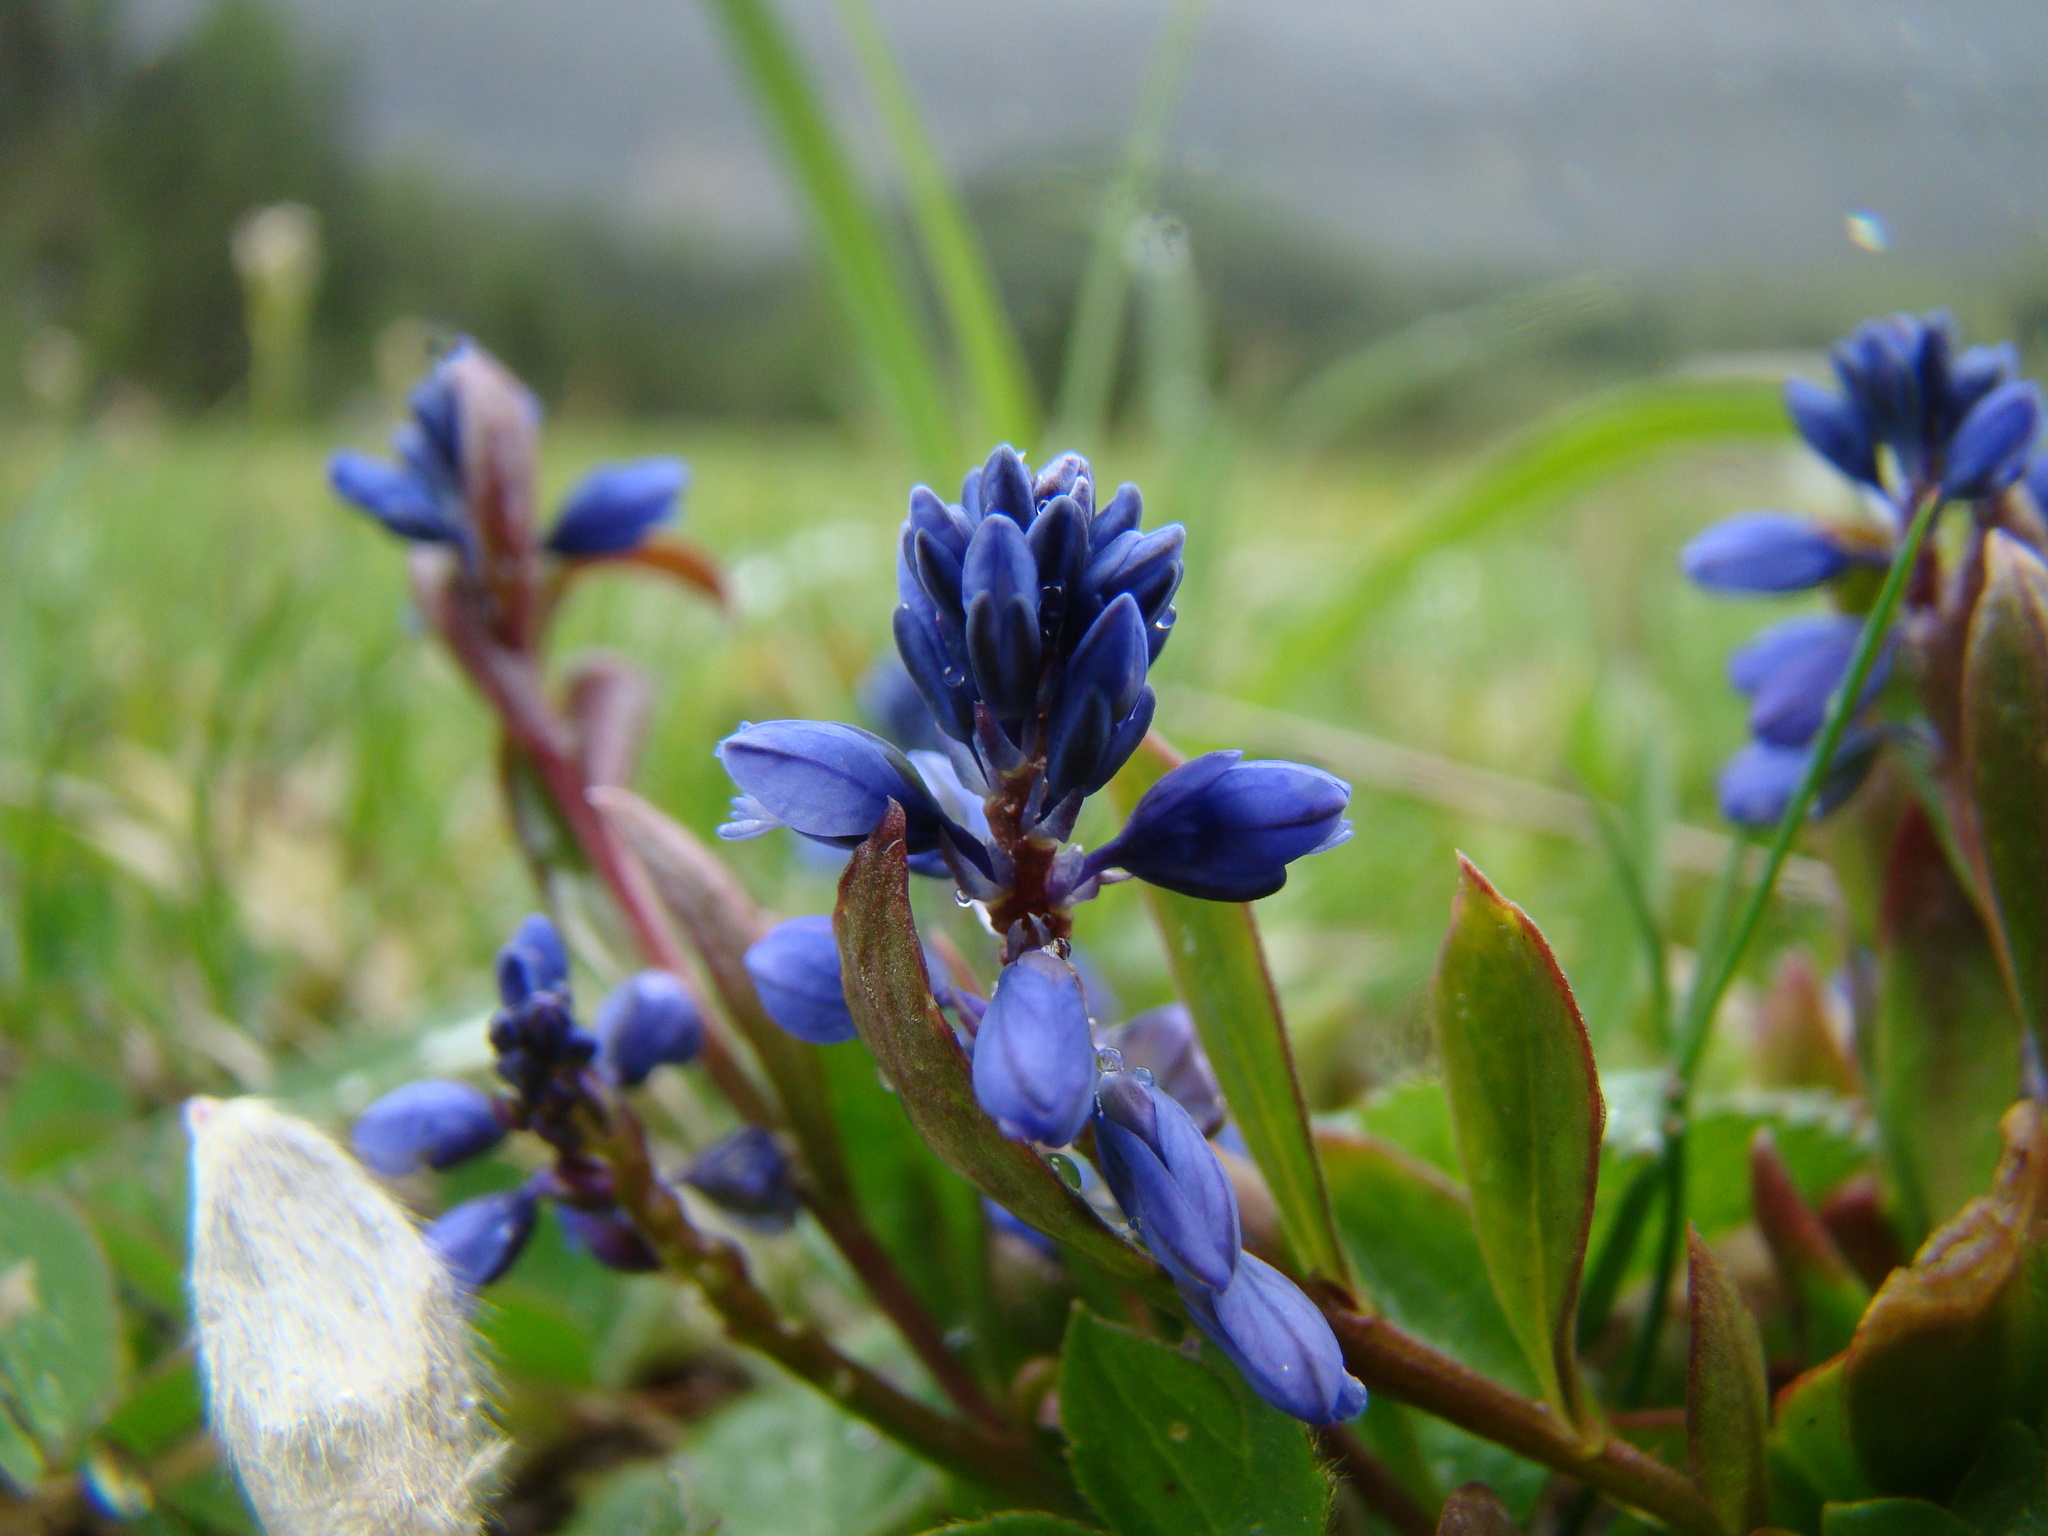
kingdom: Plantae
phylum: Tracheophyta
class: Magnoliopsida
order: Fabales
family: Polygalaceae
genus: Polygala
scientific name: Polygala vulgaris
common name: Common milkwort
